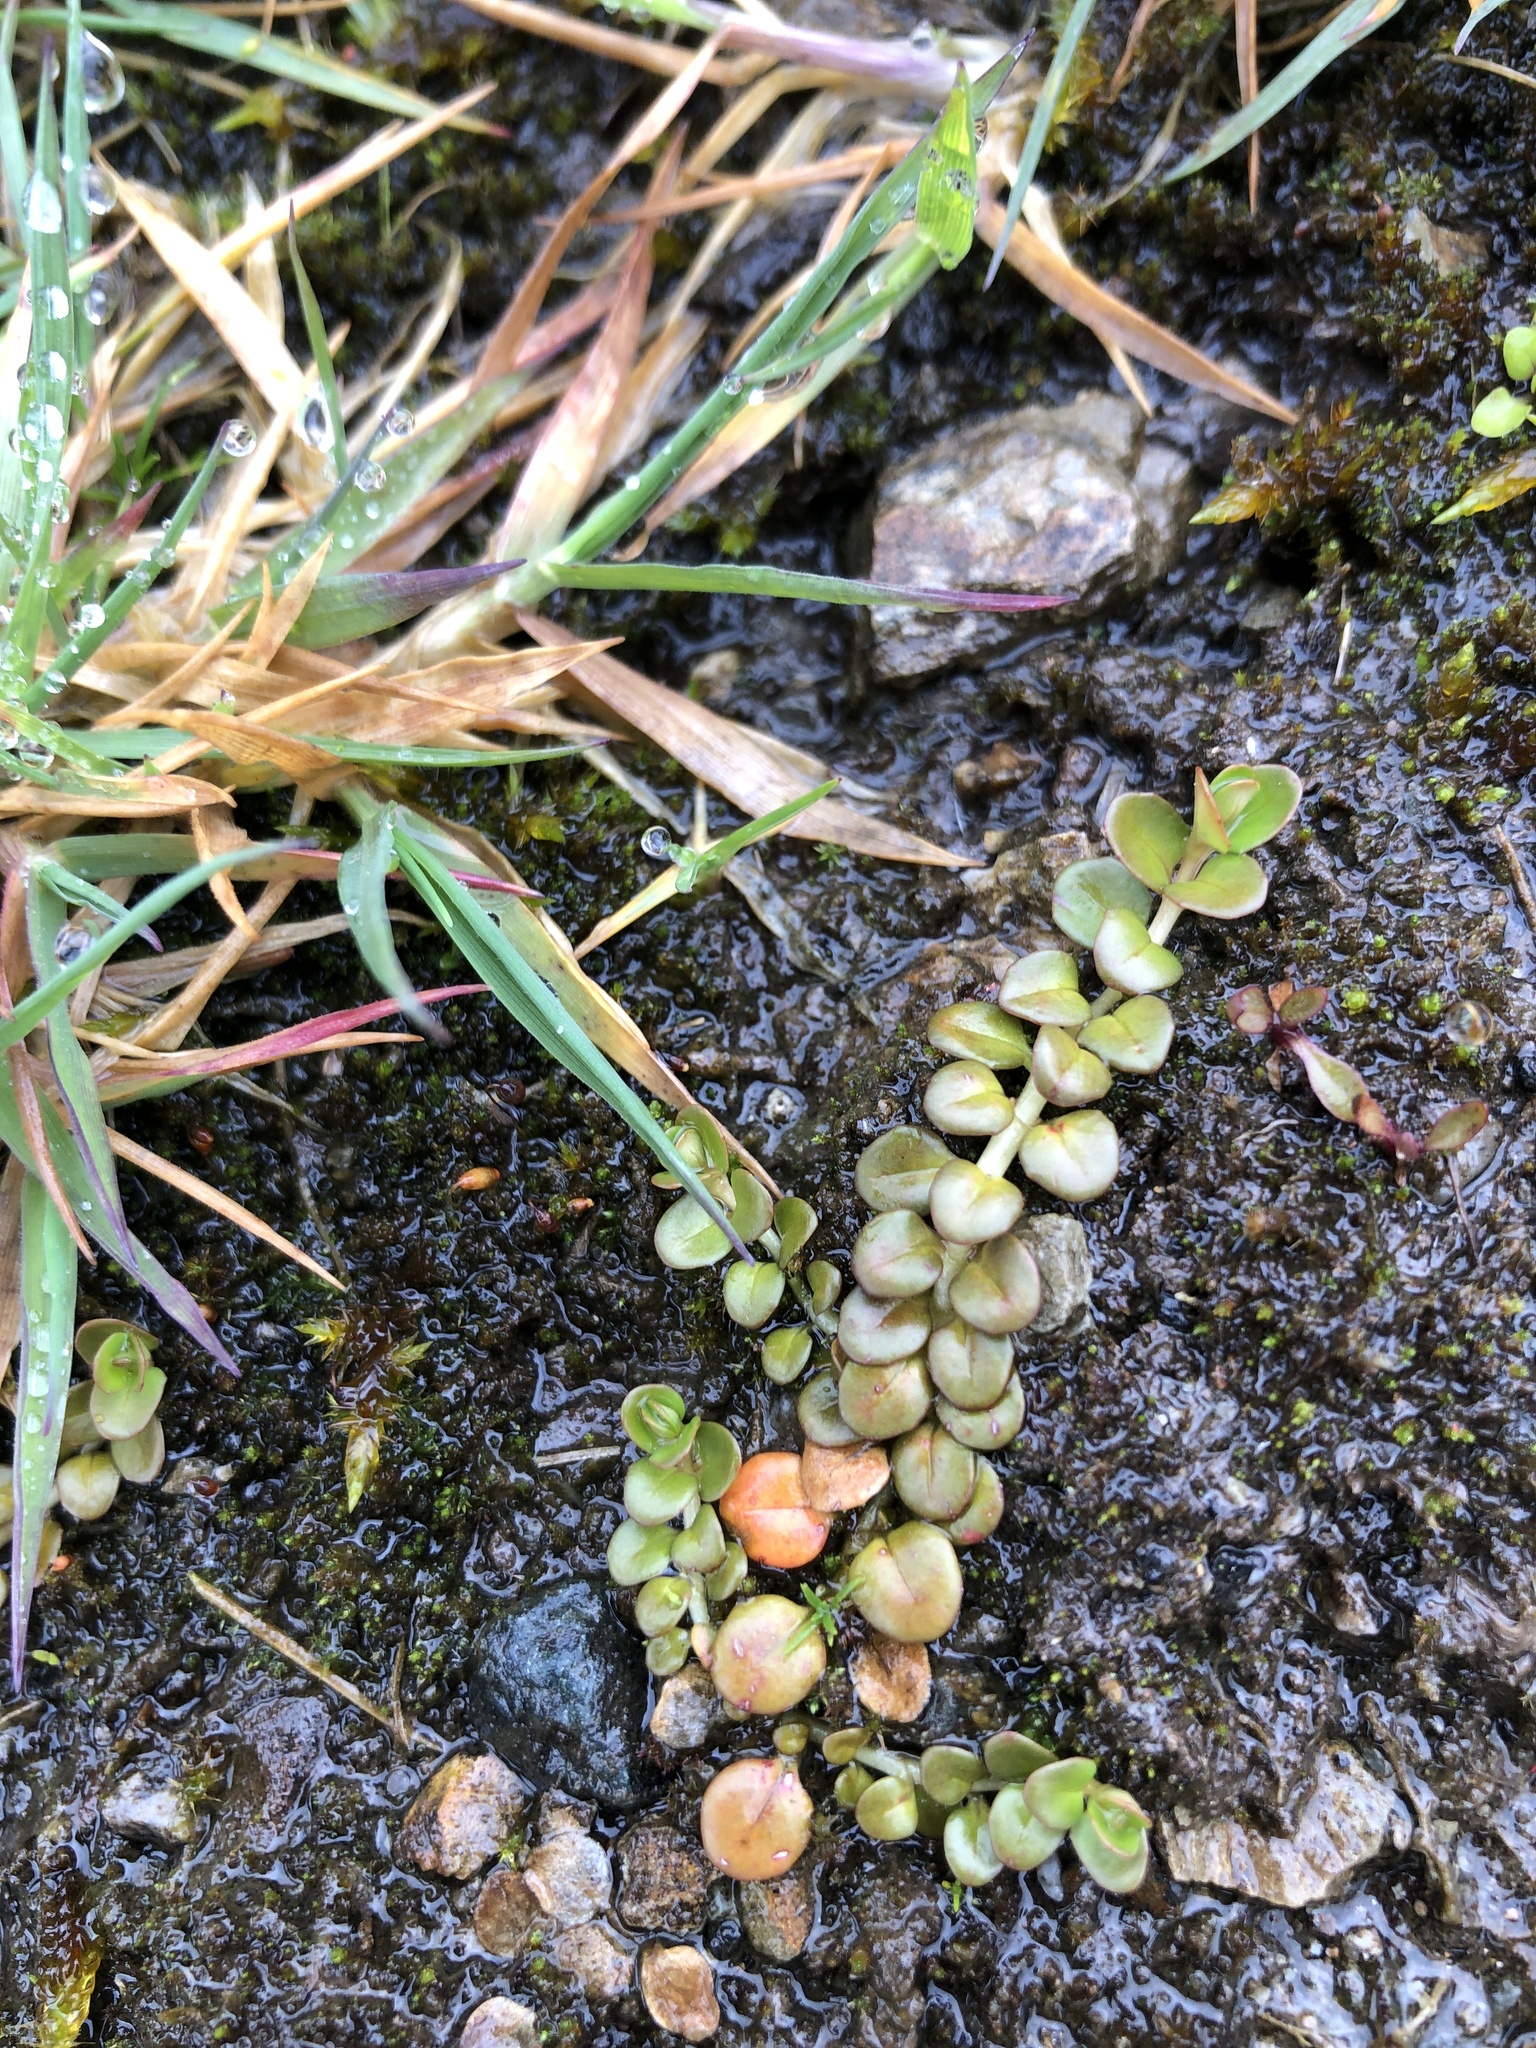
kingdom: Plantae
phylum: Tracheophyta
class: Magnoliopsida
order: Myrtales
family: Onagraceae
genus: Epilobium
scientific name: Epilobium brunnescens
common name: New zealand willowherb
